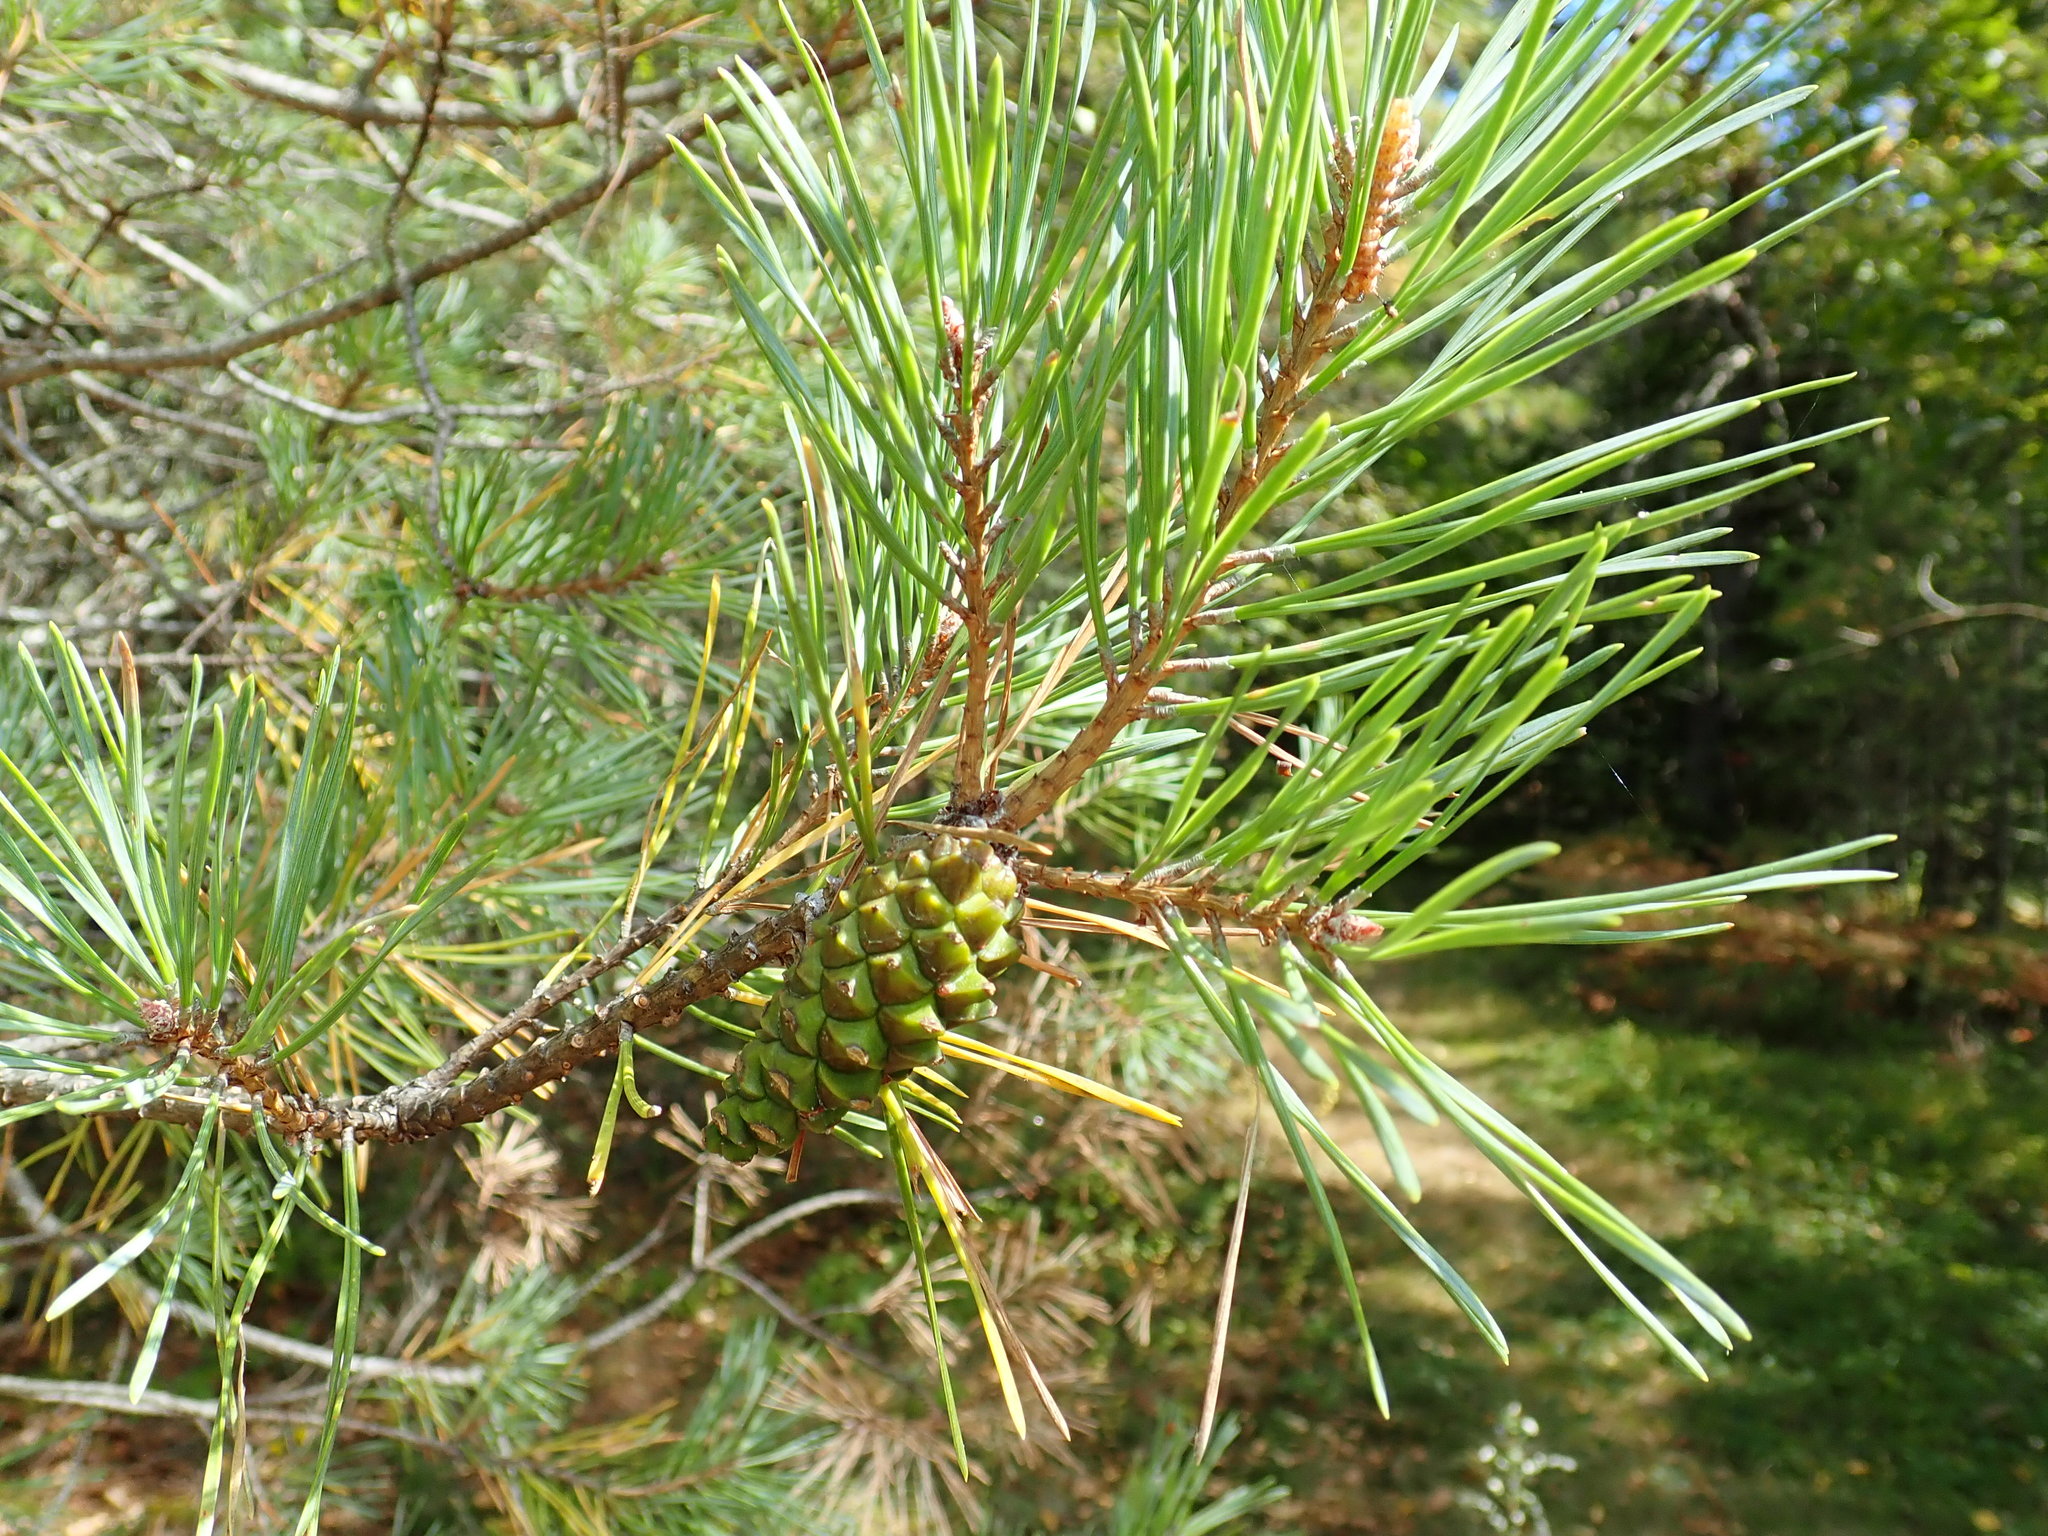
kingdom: Plantae
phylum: Tracheophyta
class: Pinopsida
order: Pinales
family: Pinaceae
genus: Pinus
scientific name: Pinus sylvestris
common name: Scots pine
